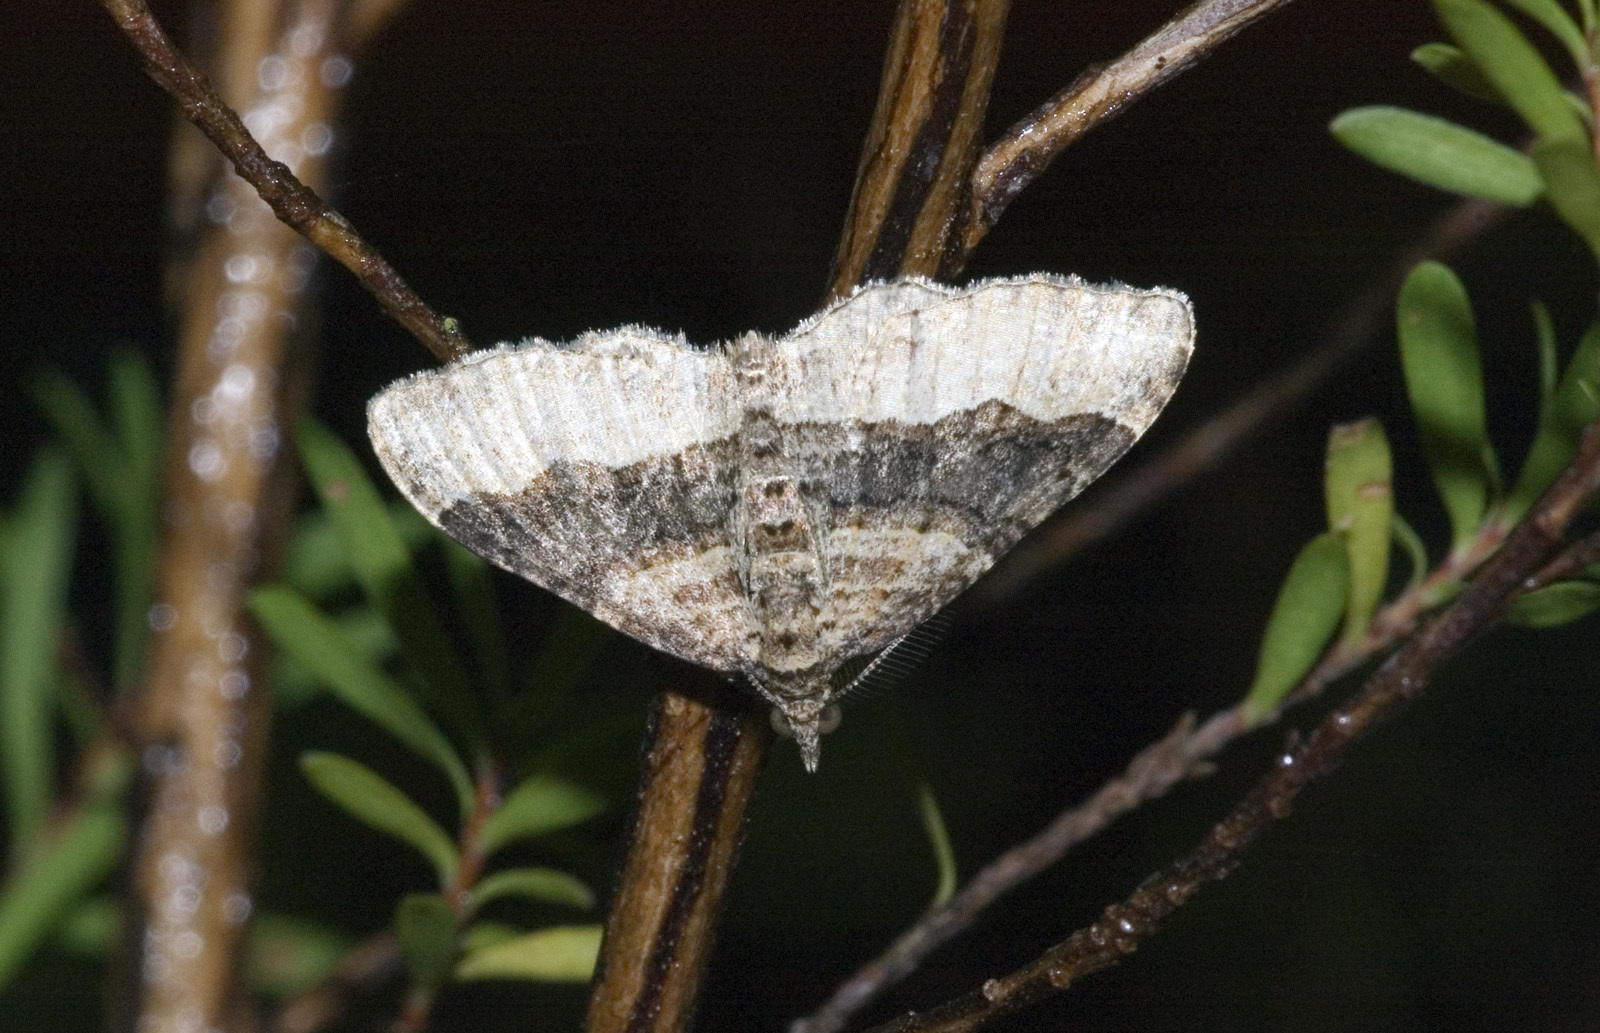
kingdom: Animalia
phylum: Arthropoda
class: Insecta
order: Lepidoptera
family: Geometridae
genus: Epyaxa
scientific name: Epyaxa lucidata
